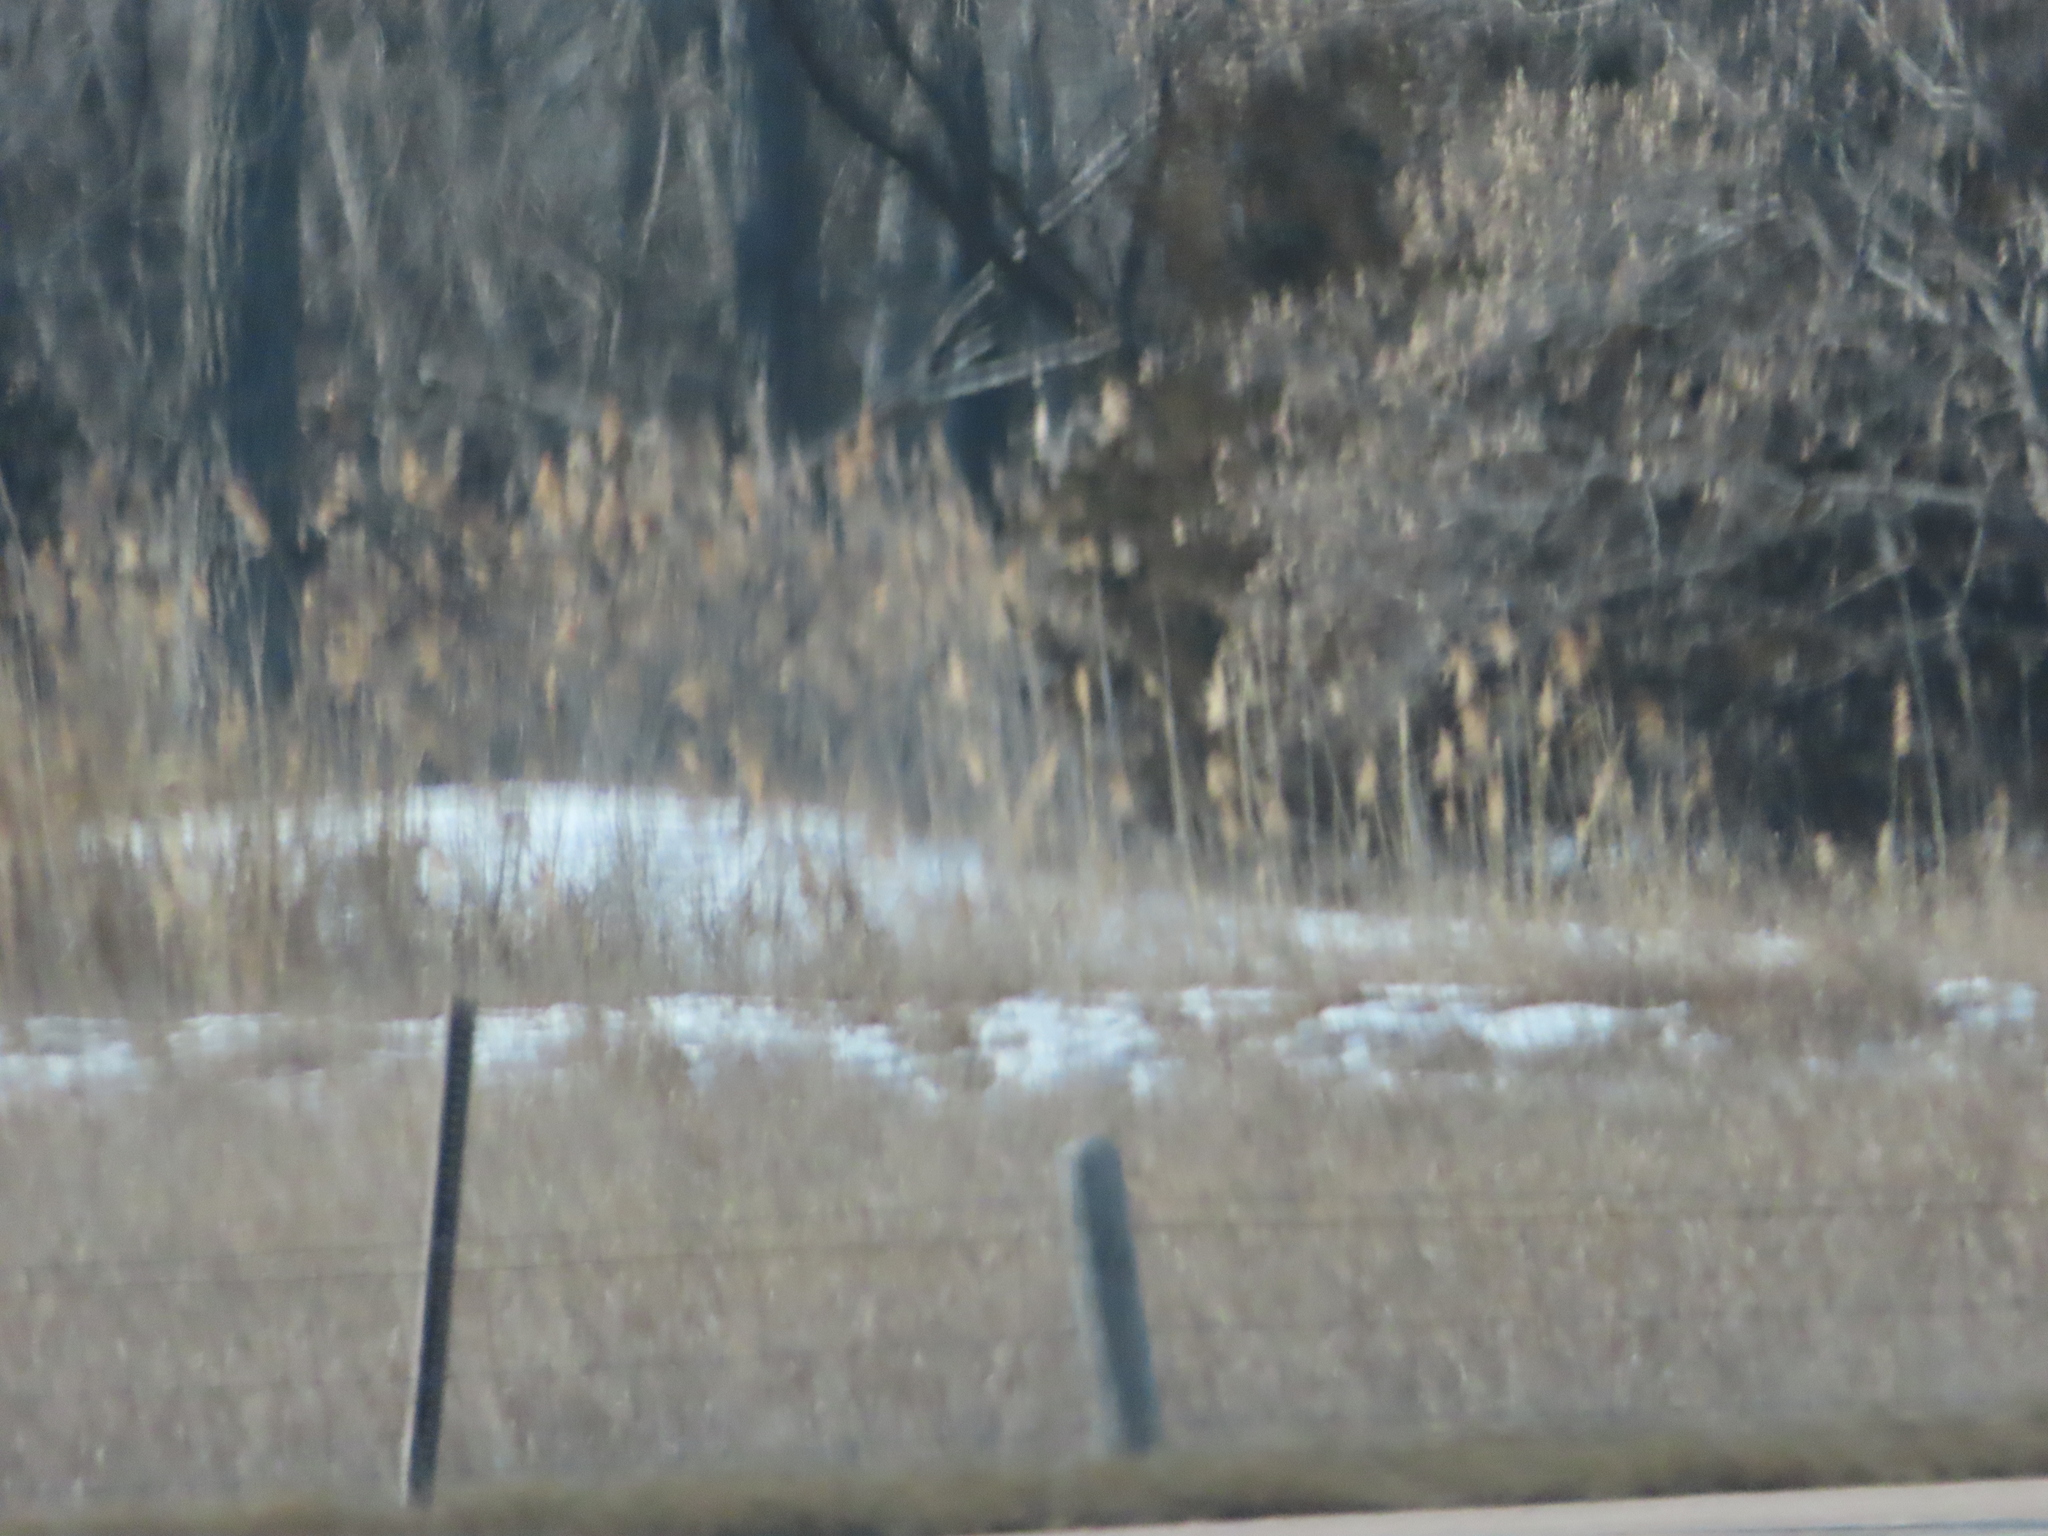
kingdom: Plantae
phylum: Tracheophyta
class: Liliopsida
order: Poales
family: Poaceae
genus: Phragmites
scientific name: Phragmites australis
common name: Common reed
